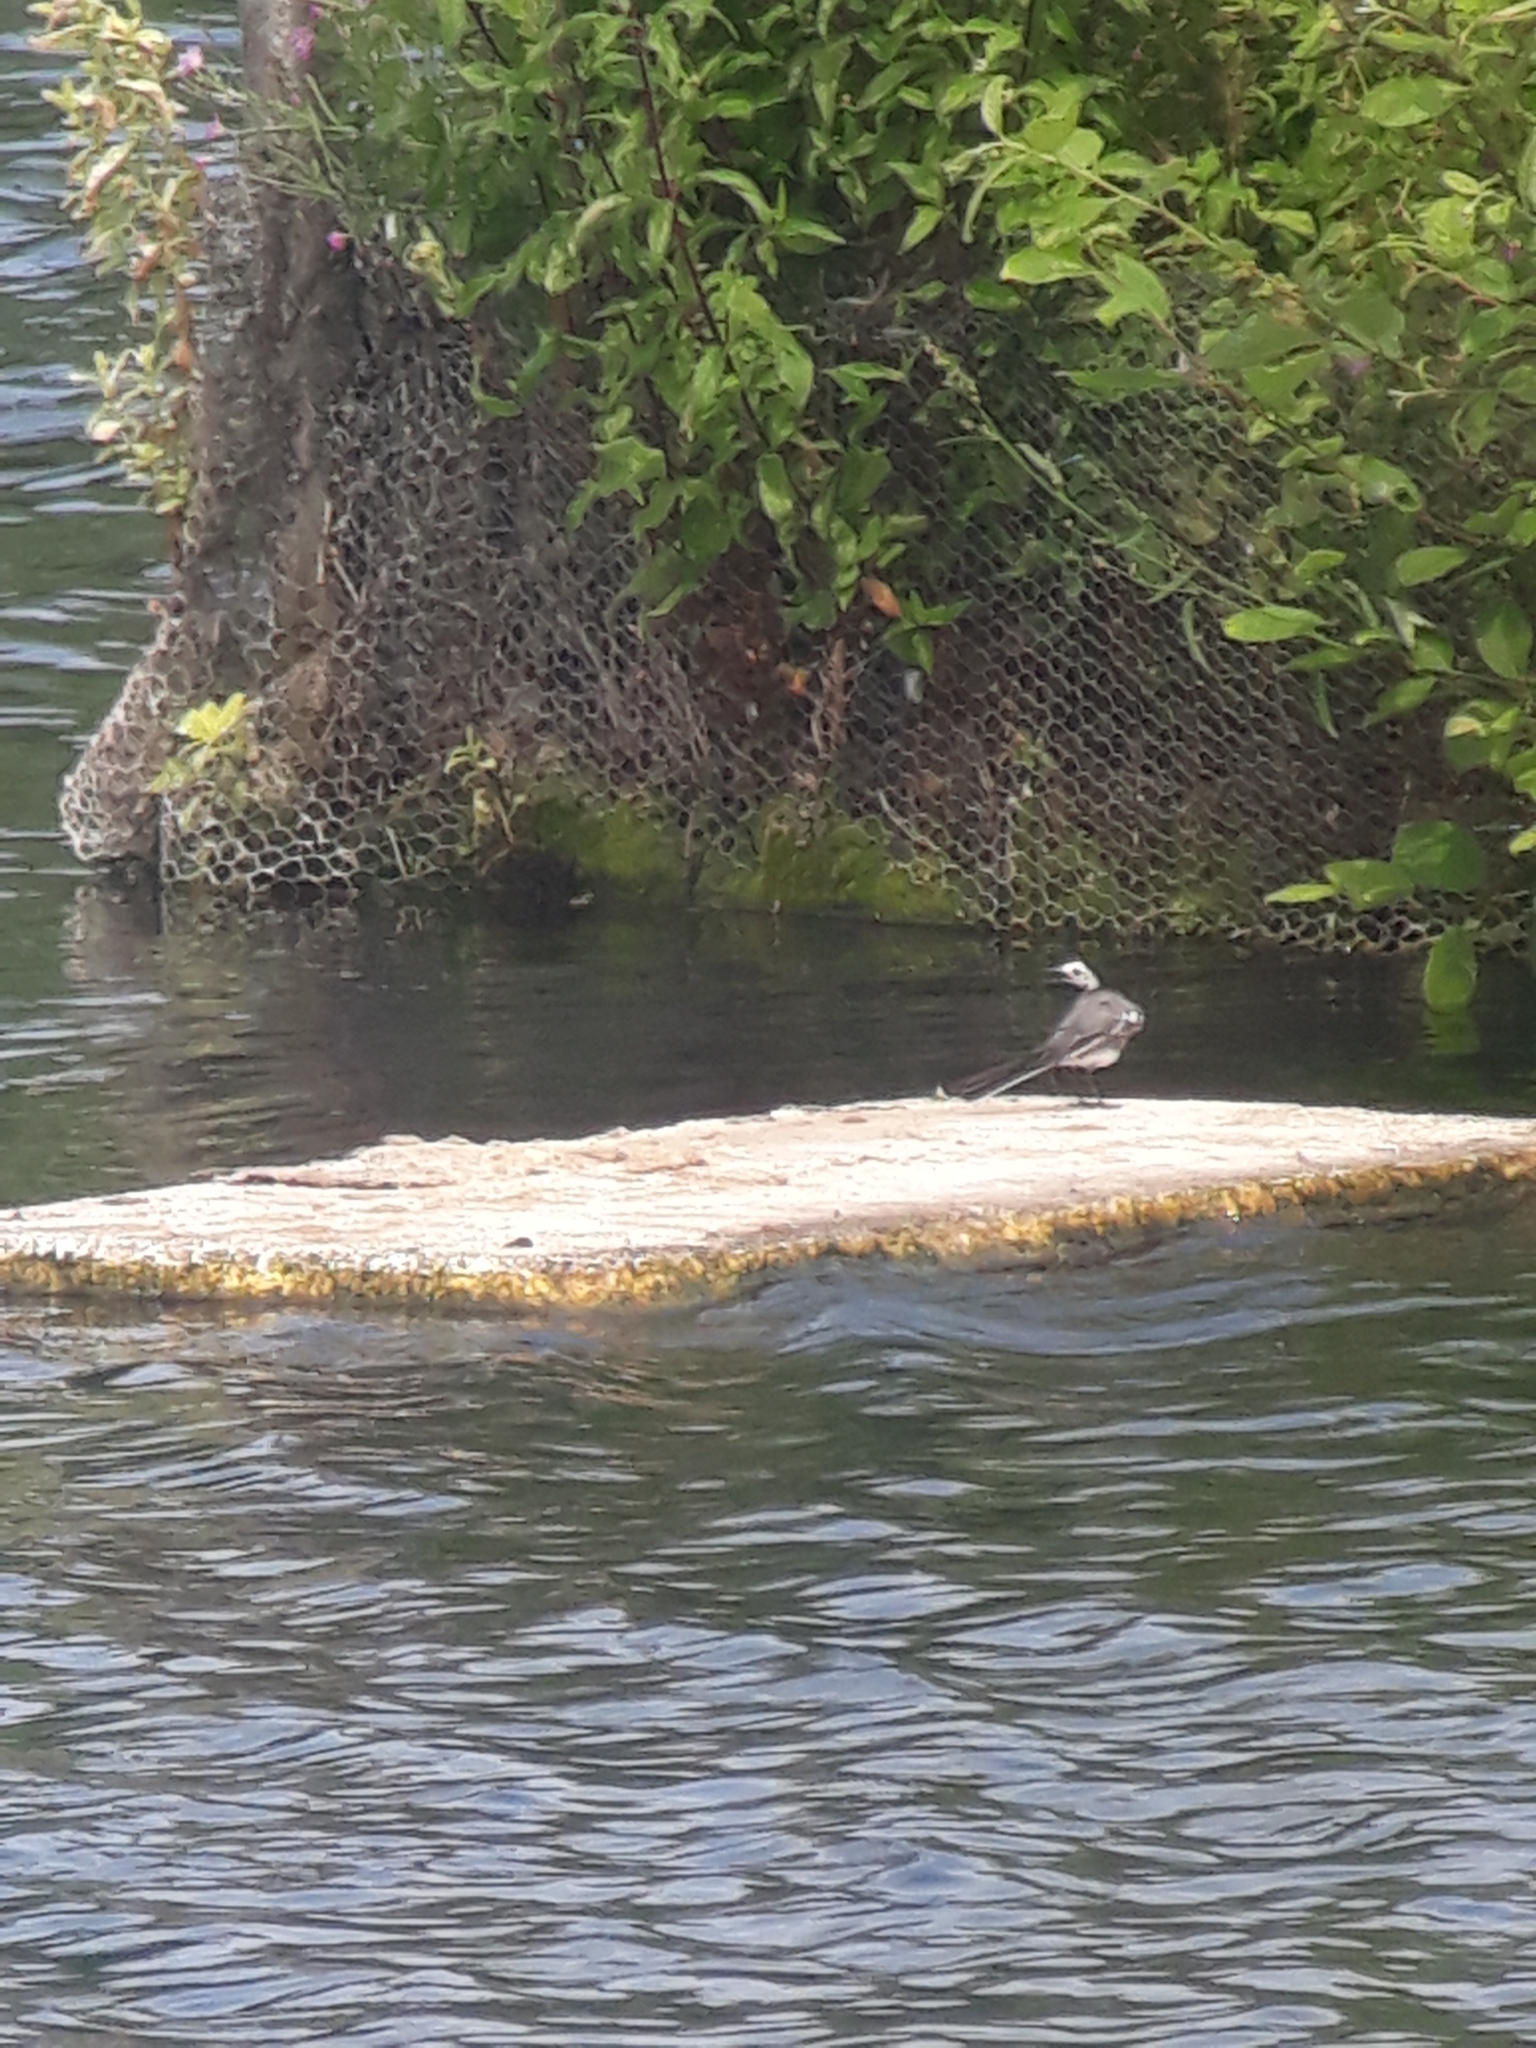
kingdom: Animalia
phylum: Chordata
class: Aves
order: Passeriformes
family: Motacillidae
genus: Motacilla
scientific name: Motacilla alba
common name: White wagtail
